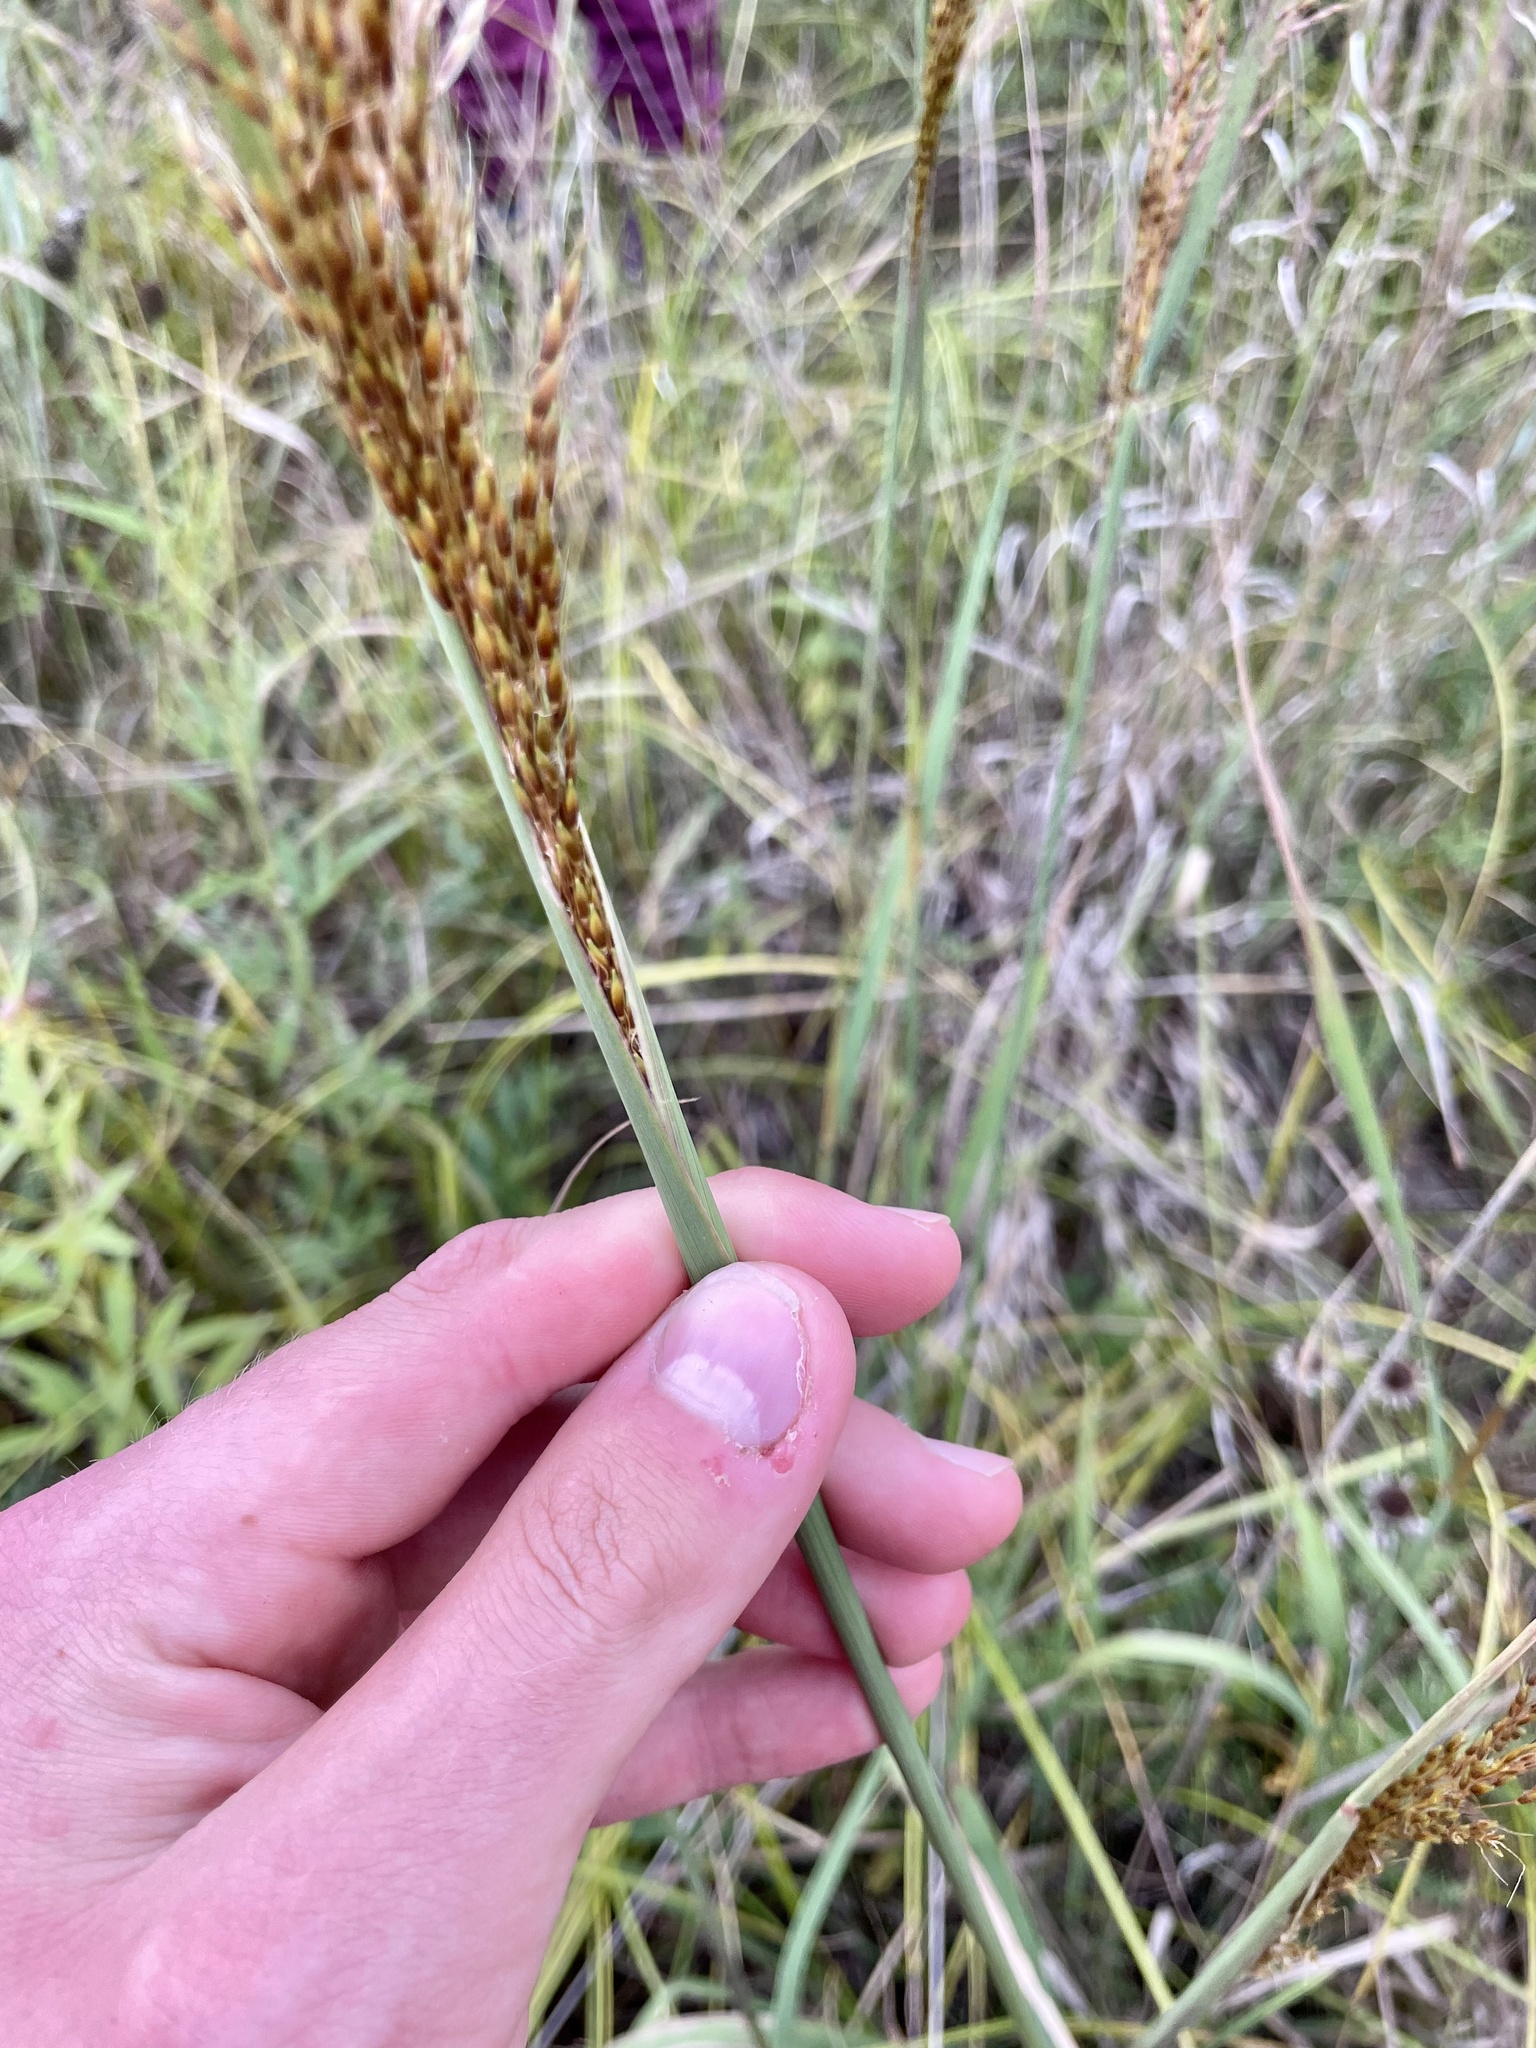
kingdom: Plantae
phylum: Tracheophyta
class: Liliopsida
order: Poales
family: Poaceae
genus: Sorghastrum
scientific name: Sorghastrum nutans
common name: Indian grass
